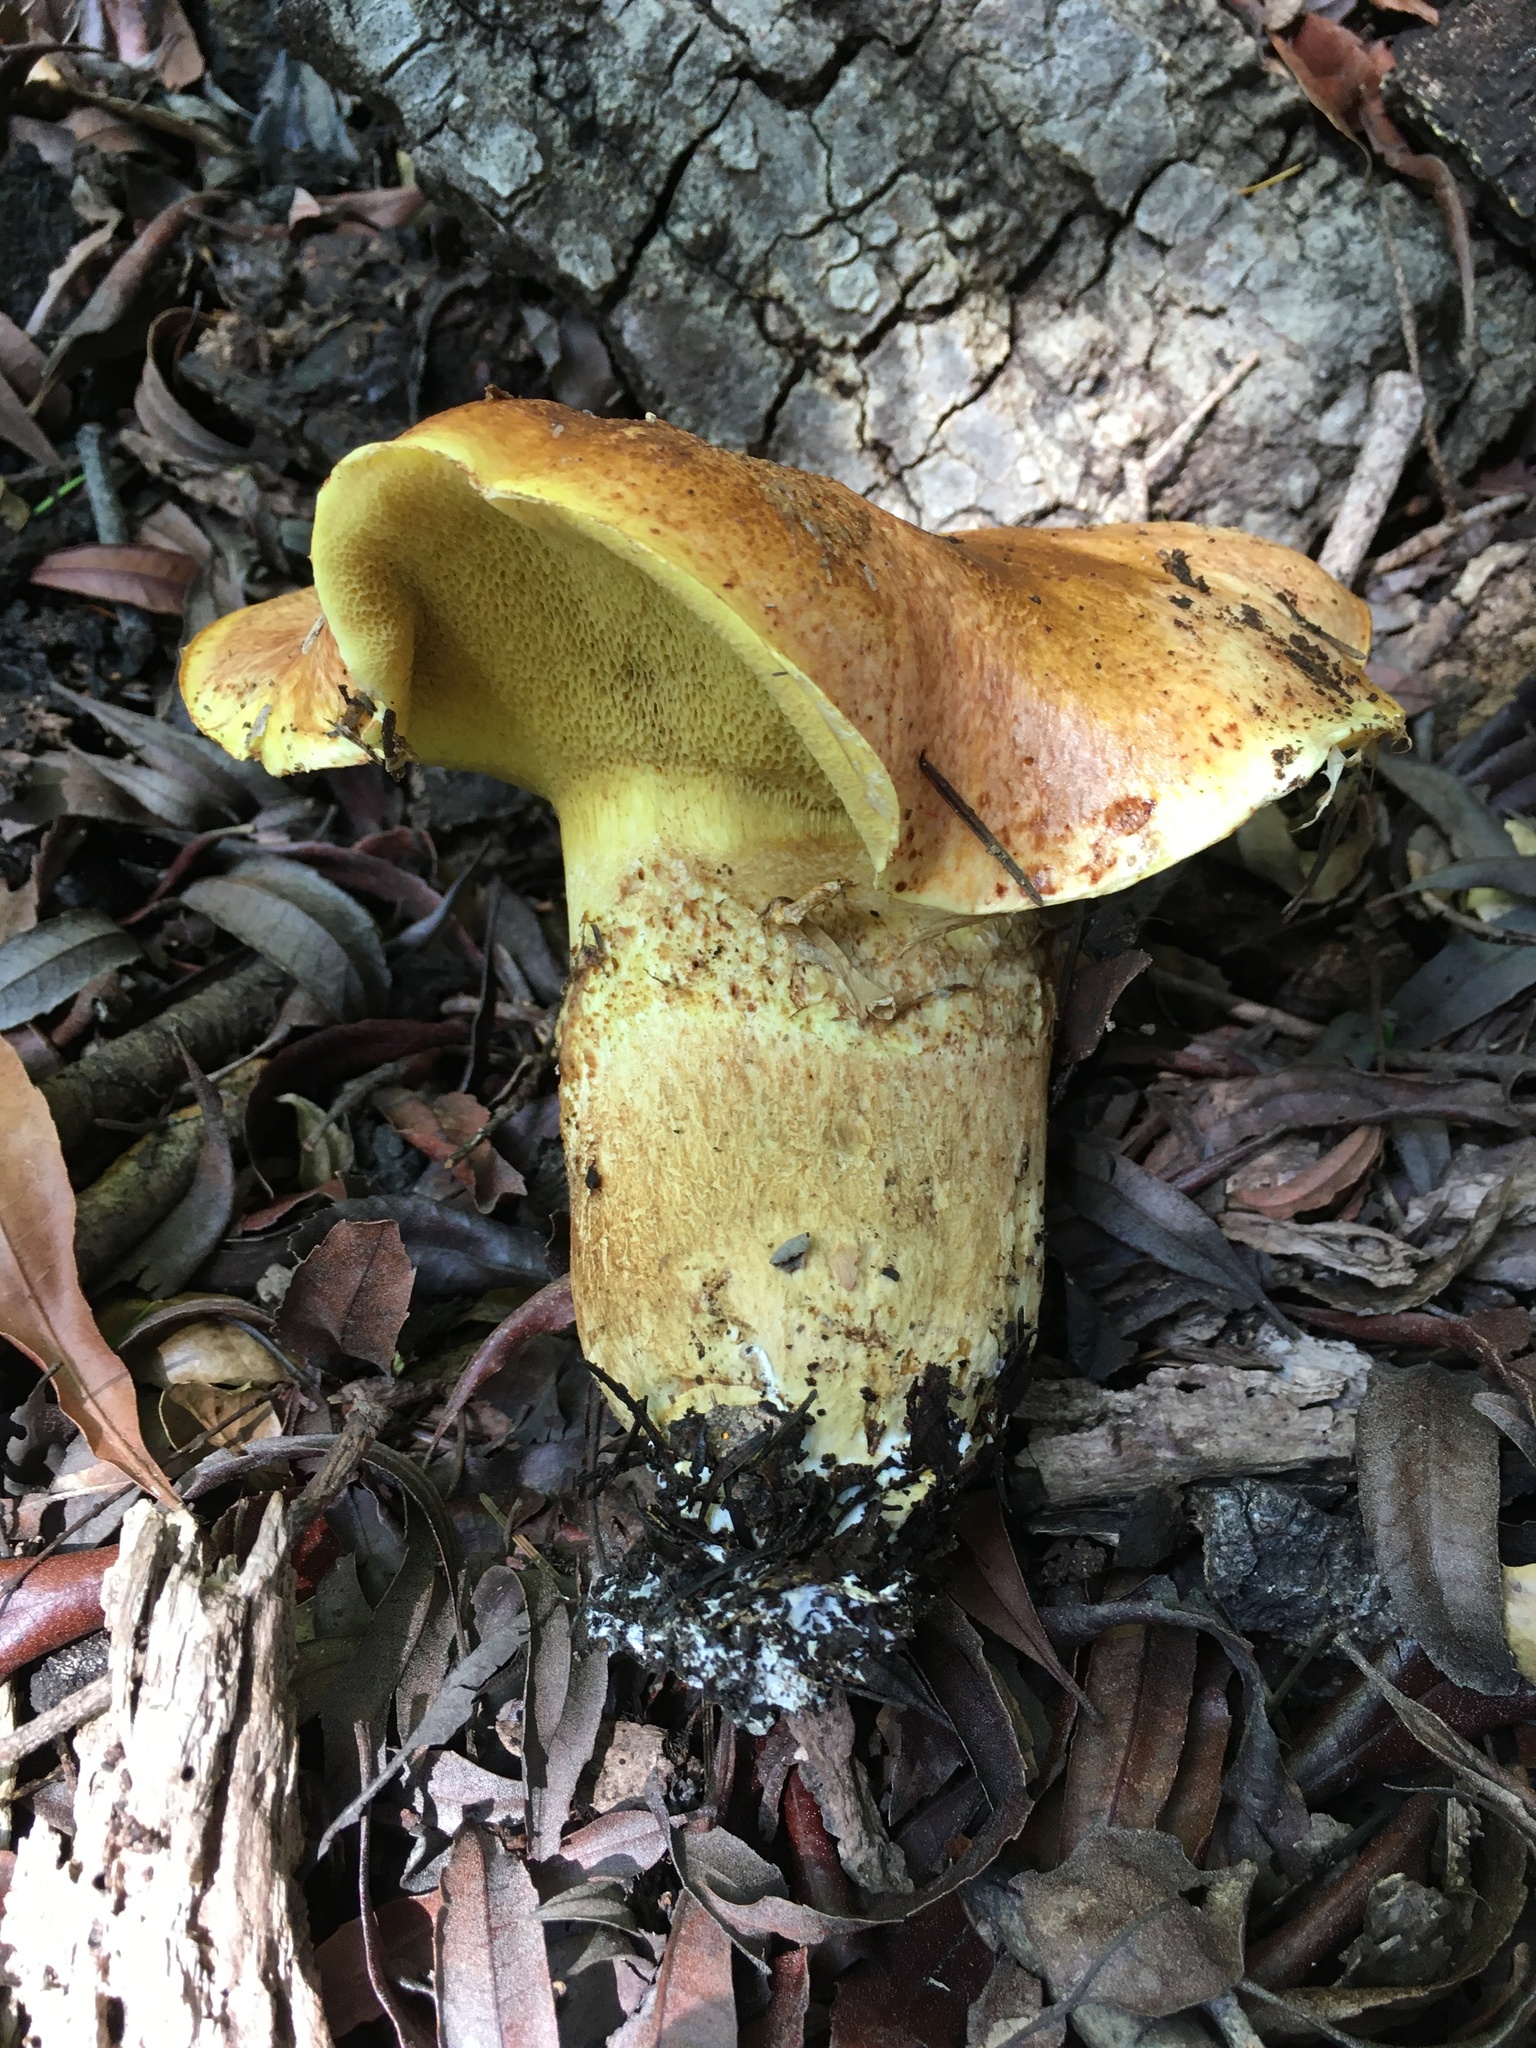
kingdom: Fungi
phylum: Basidiomycota
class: Agaricomycetes
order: Boletales
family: Suillaceae
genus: Suillus
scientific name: Suillus caerulescens
